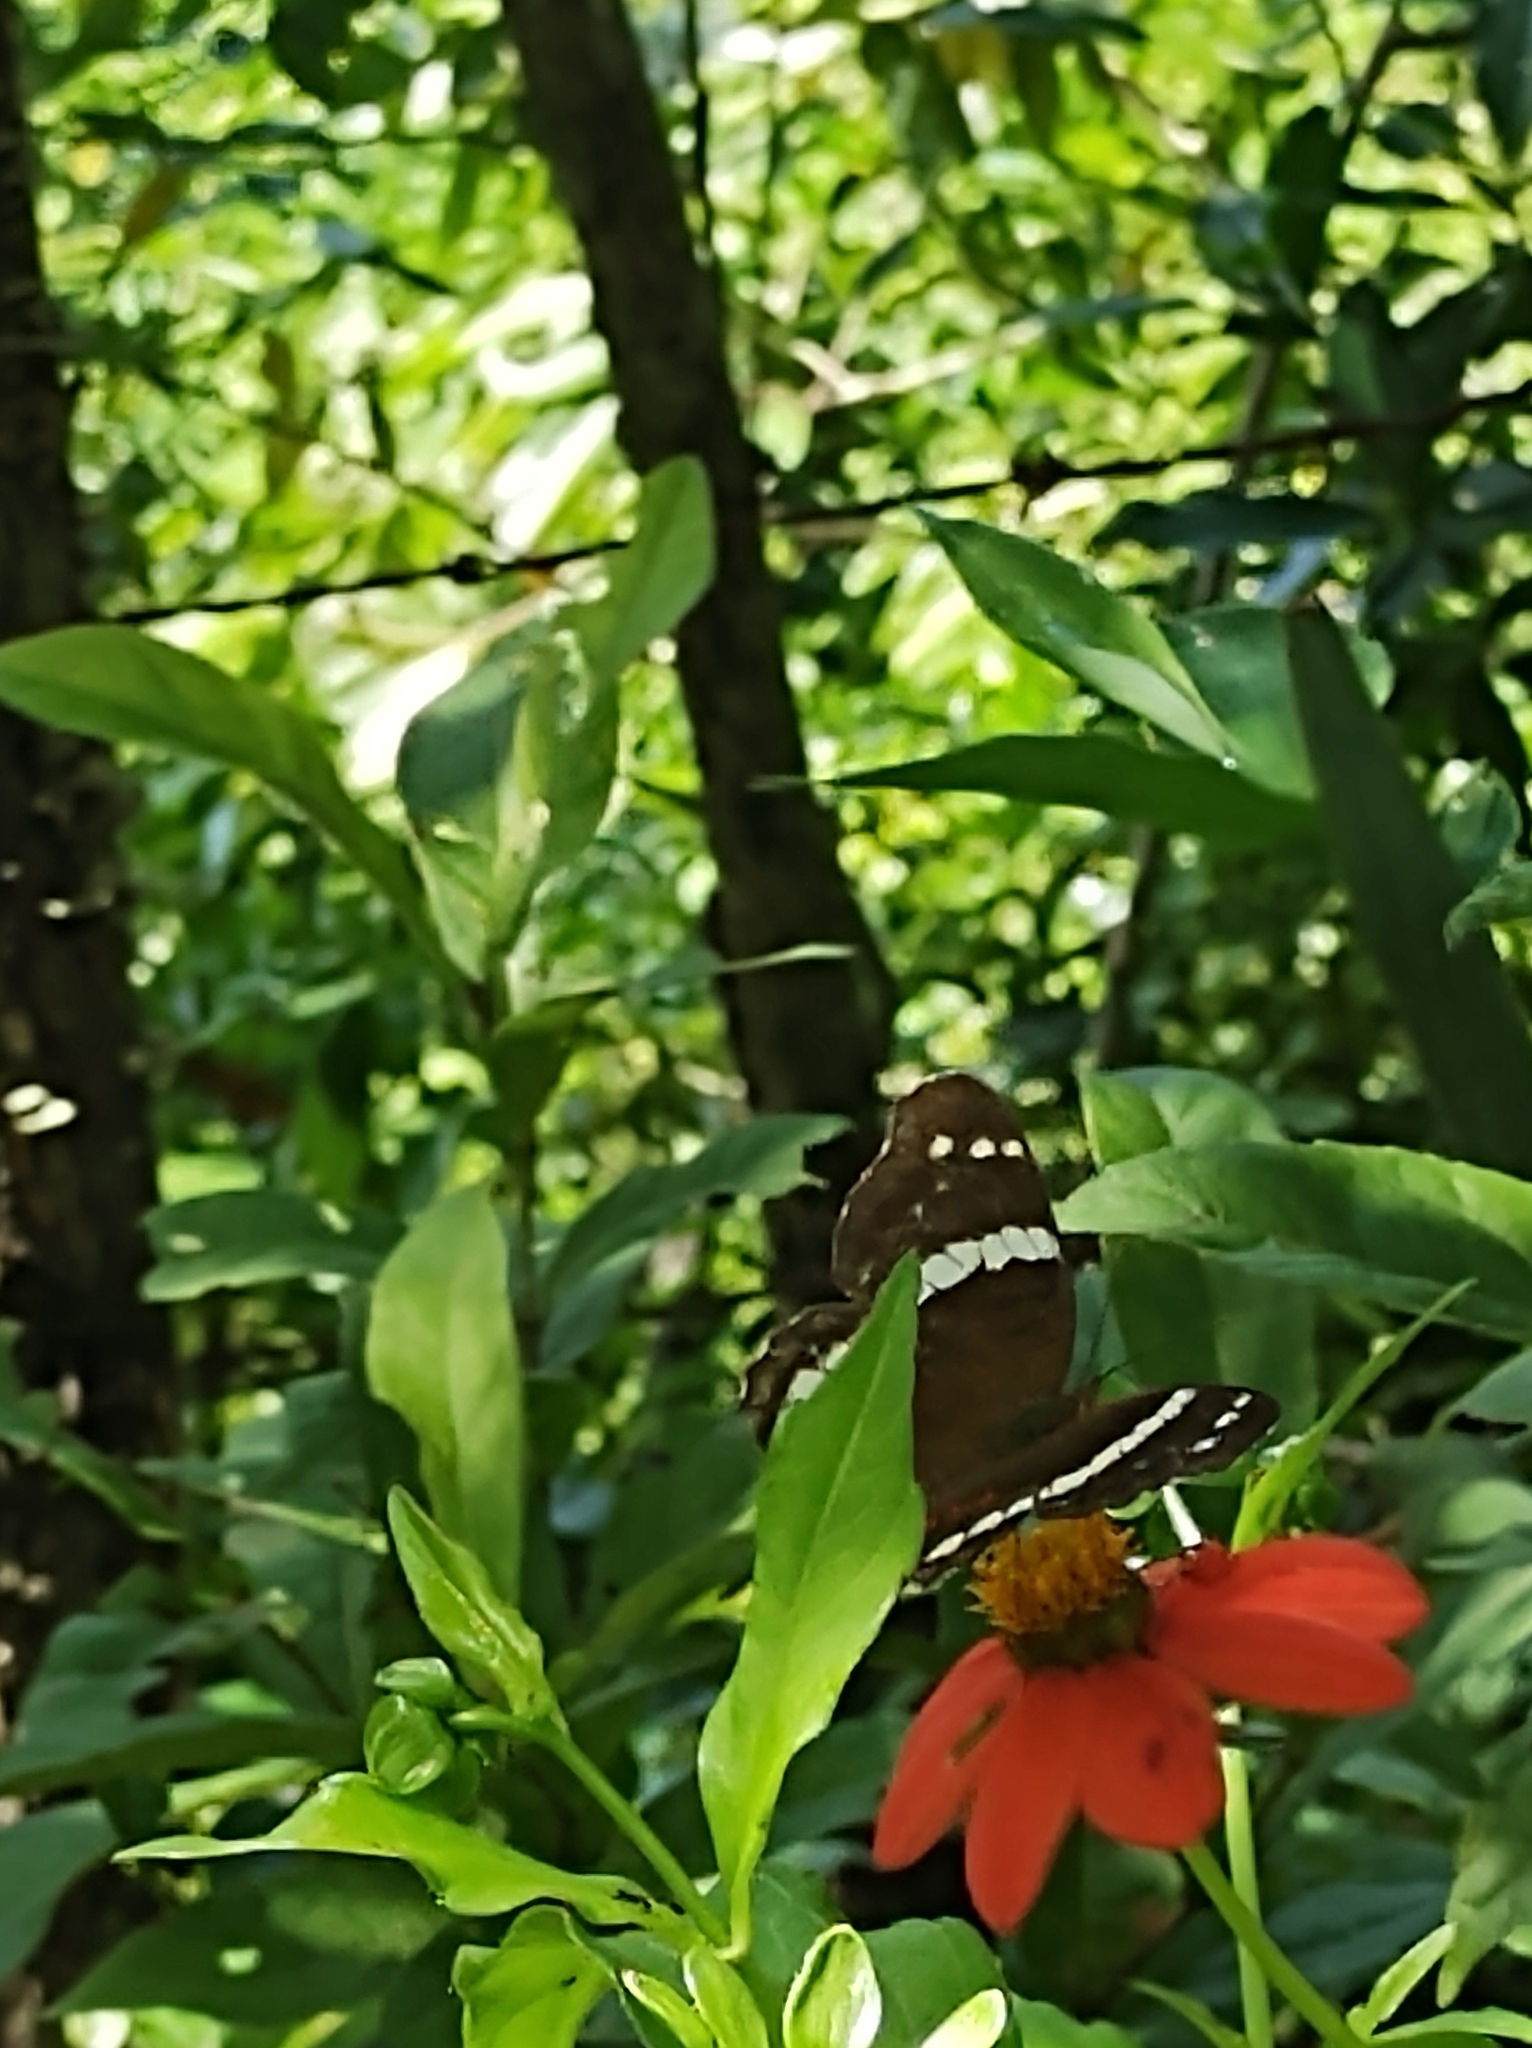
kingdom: Animalia
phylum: Arthropoda
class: Insecta
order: Lepidoptera
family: Nymphalidae
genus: Anartia
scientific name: Anartia fatima
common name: Banded peacock
